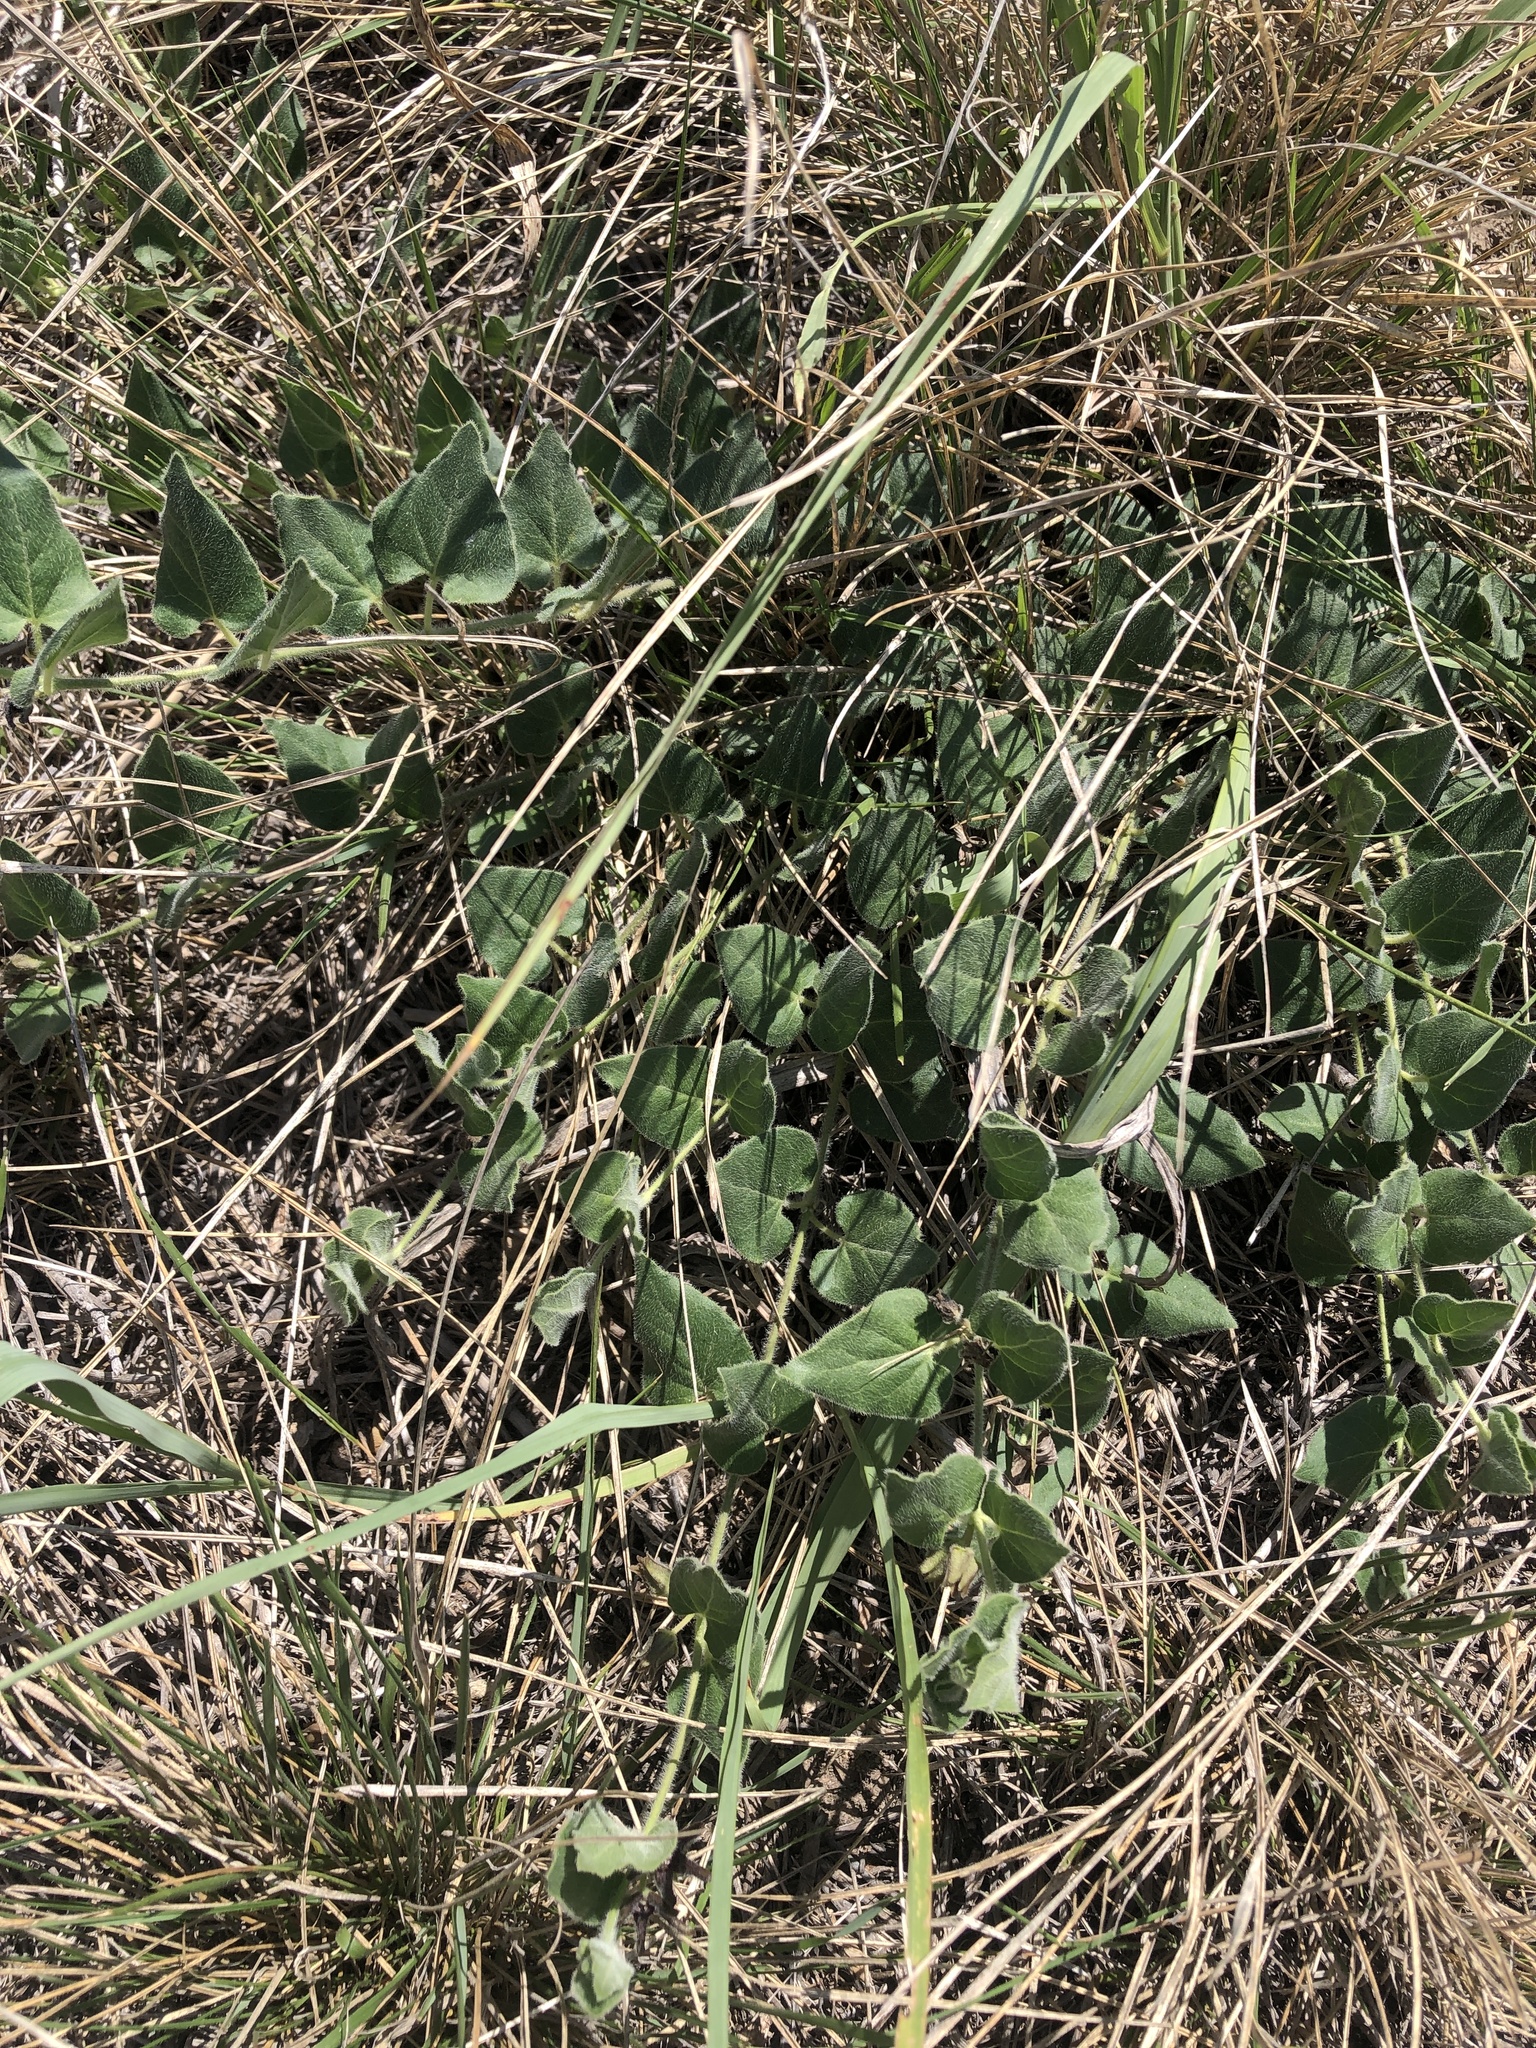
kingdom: Plantae
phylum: Tracheophyta
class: Magnoliopsida
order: Gentianales
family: Apocynaceae
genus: Chthamalia
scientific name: Chthamalia biflora
